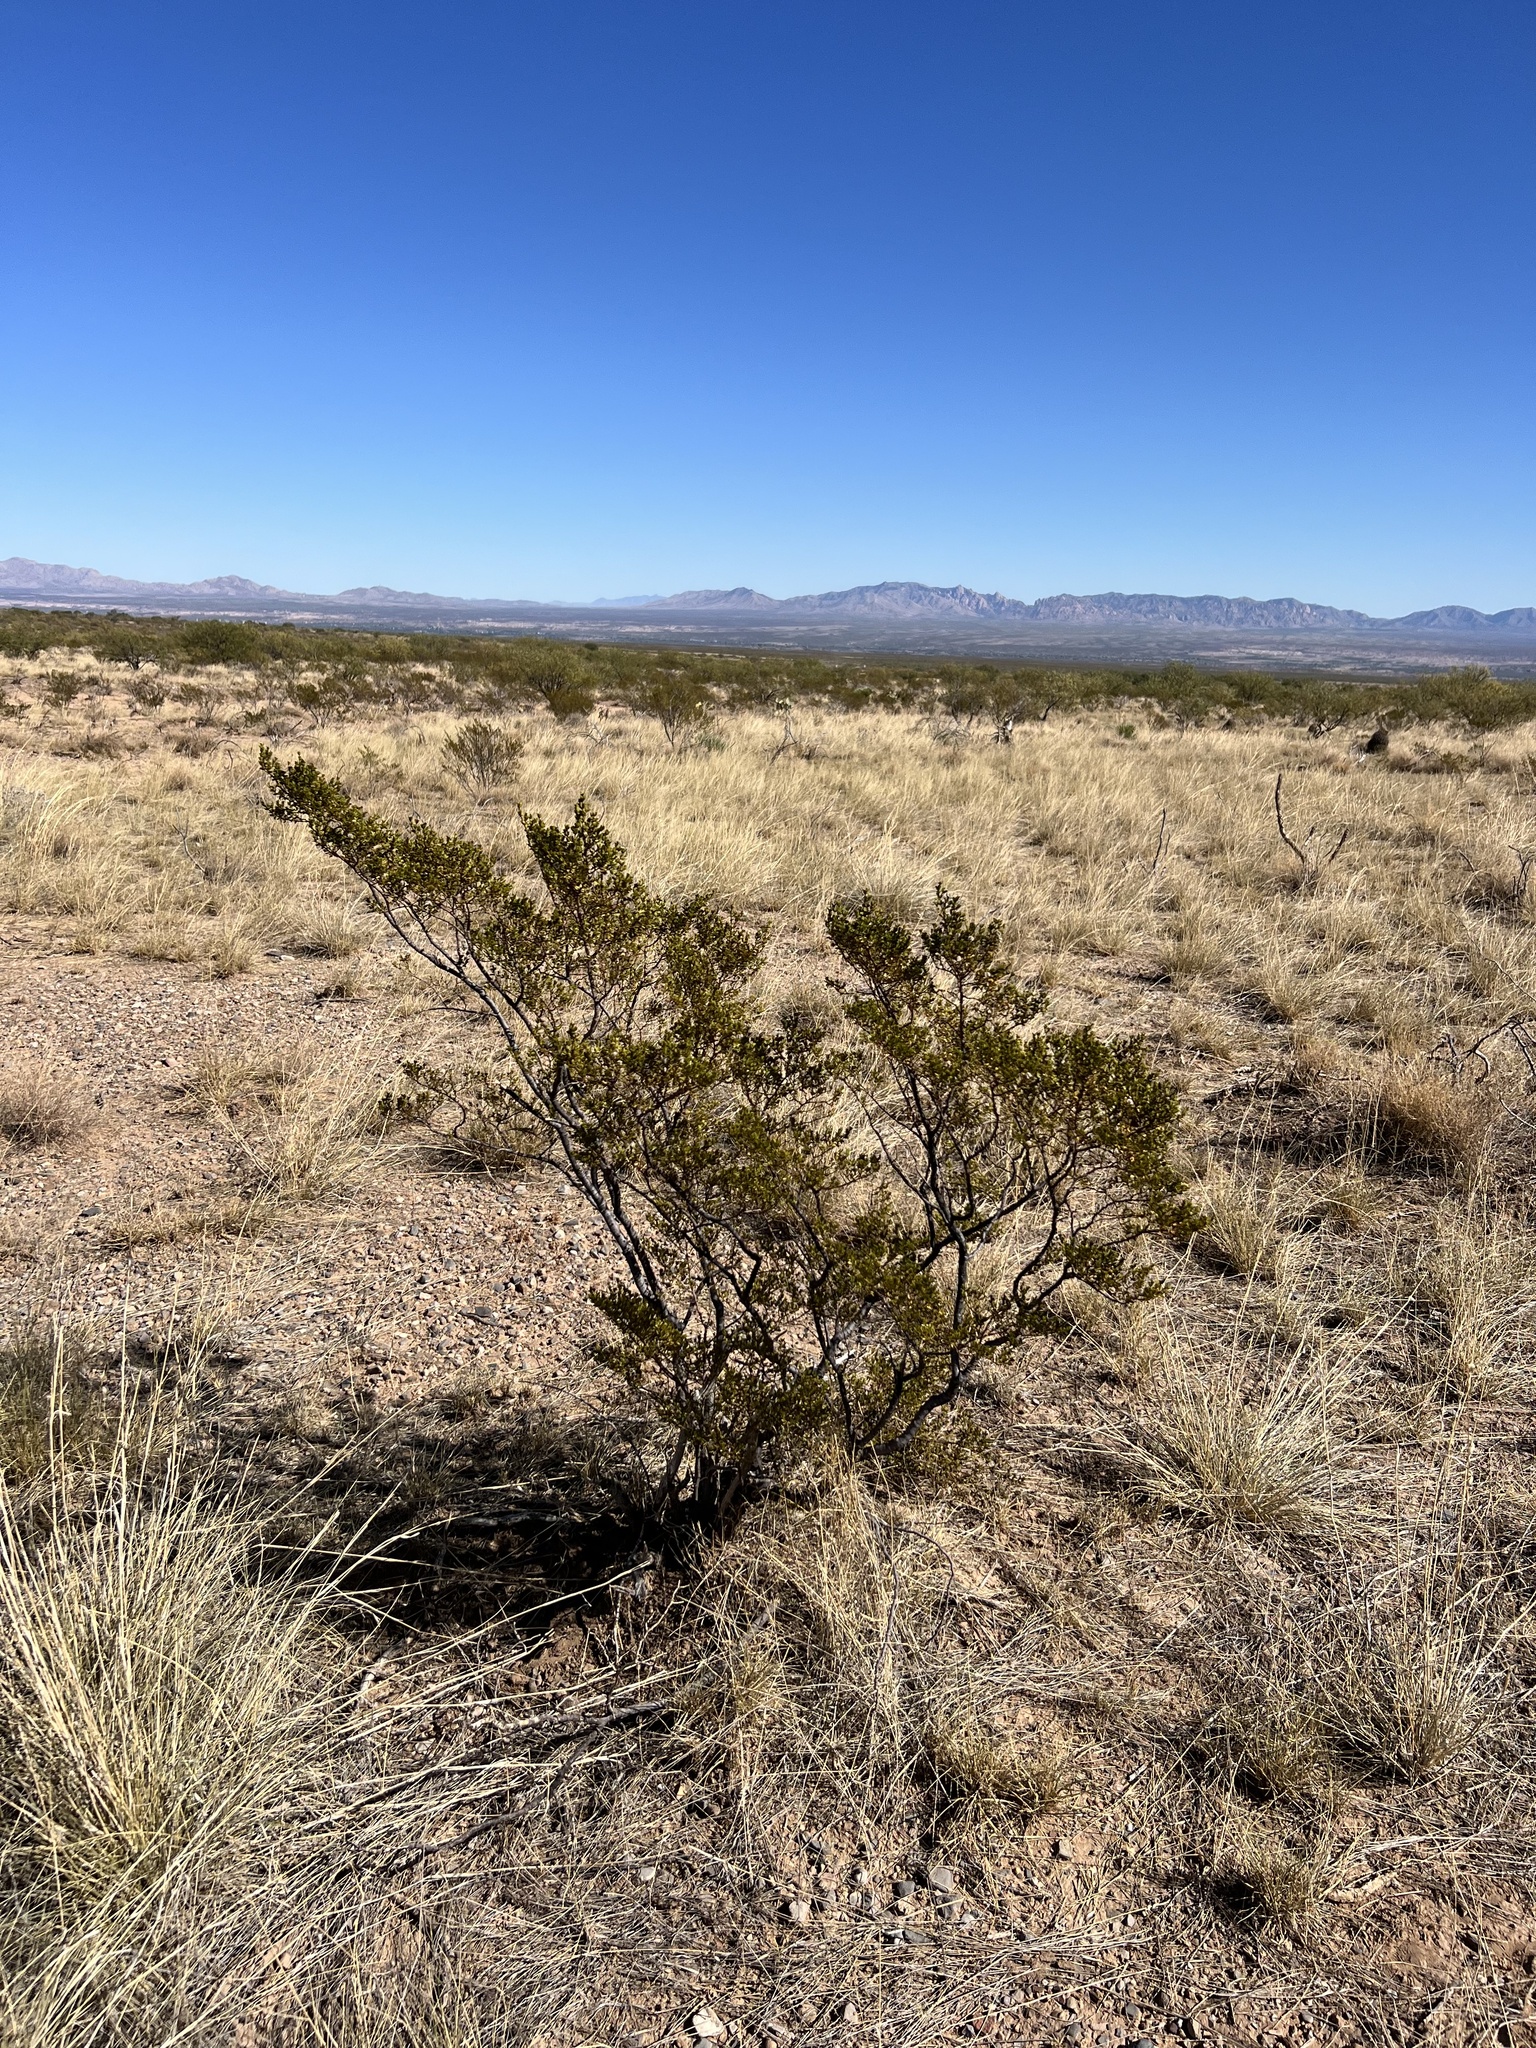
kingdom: Plantae
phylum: Tracheophyta
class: Magnoliopsida
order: Zygophyllales
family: Zygophyllaceae
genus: Larrea
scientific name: Larrea tridentata
